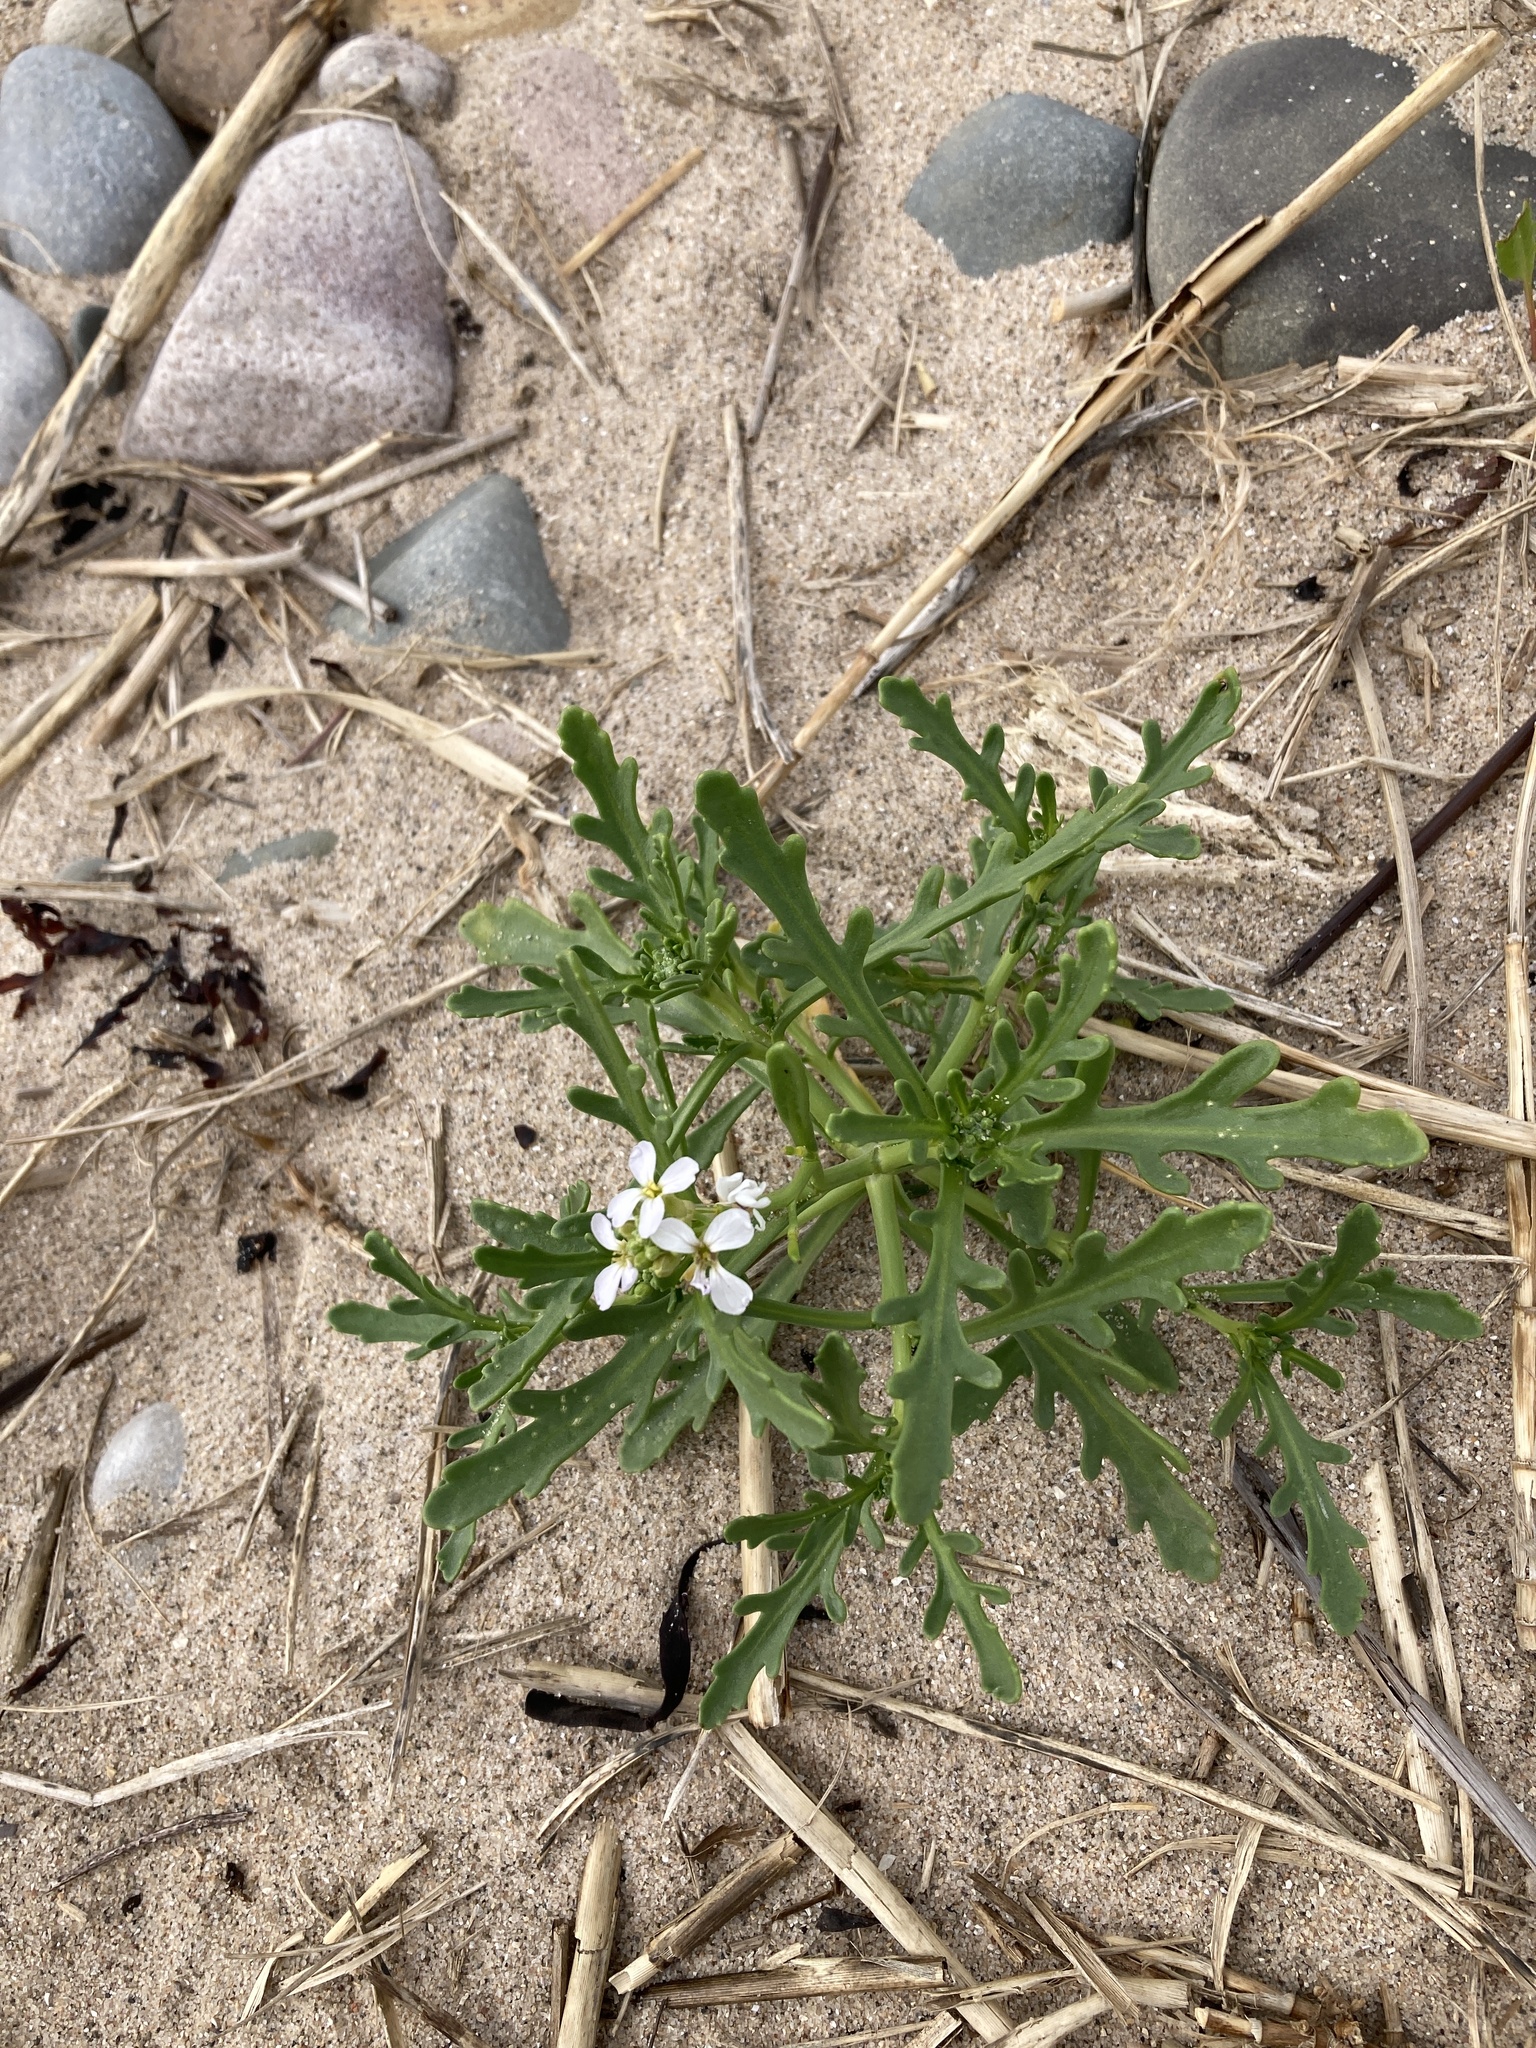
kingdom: Plantae
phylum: Tracheophyta
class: Magnoliopsida
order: Brassicales
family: Brassicaceae
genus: Cakile
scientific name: Cakile maritima
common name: Sea rocket
